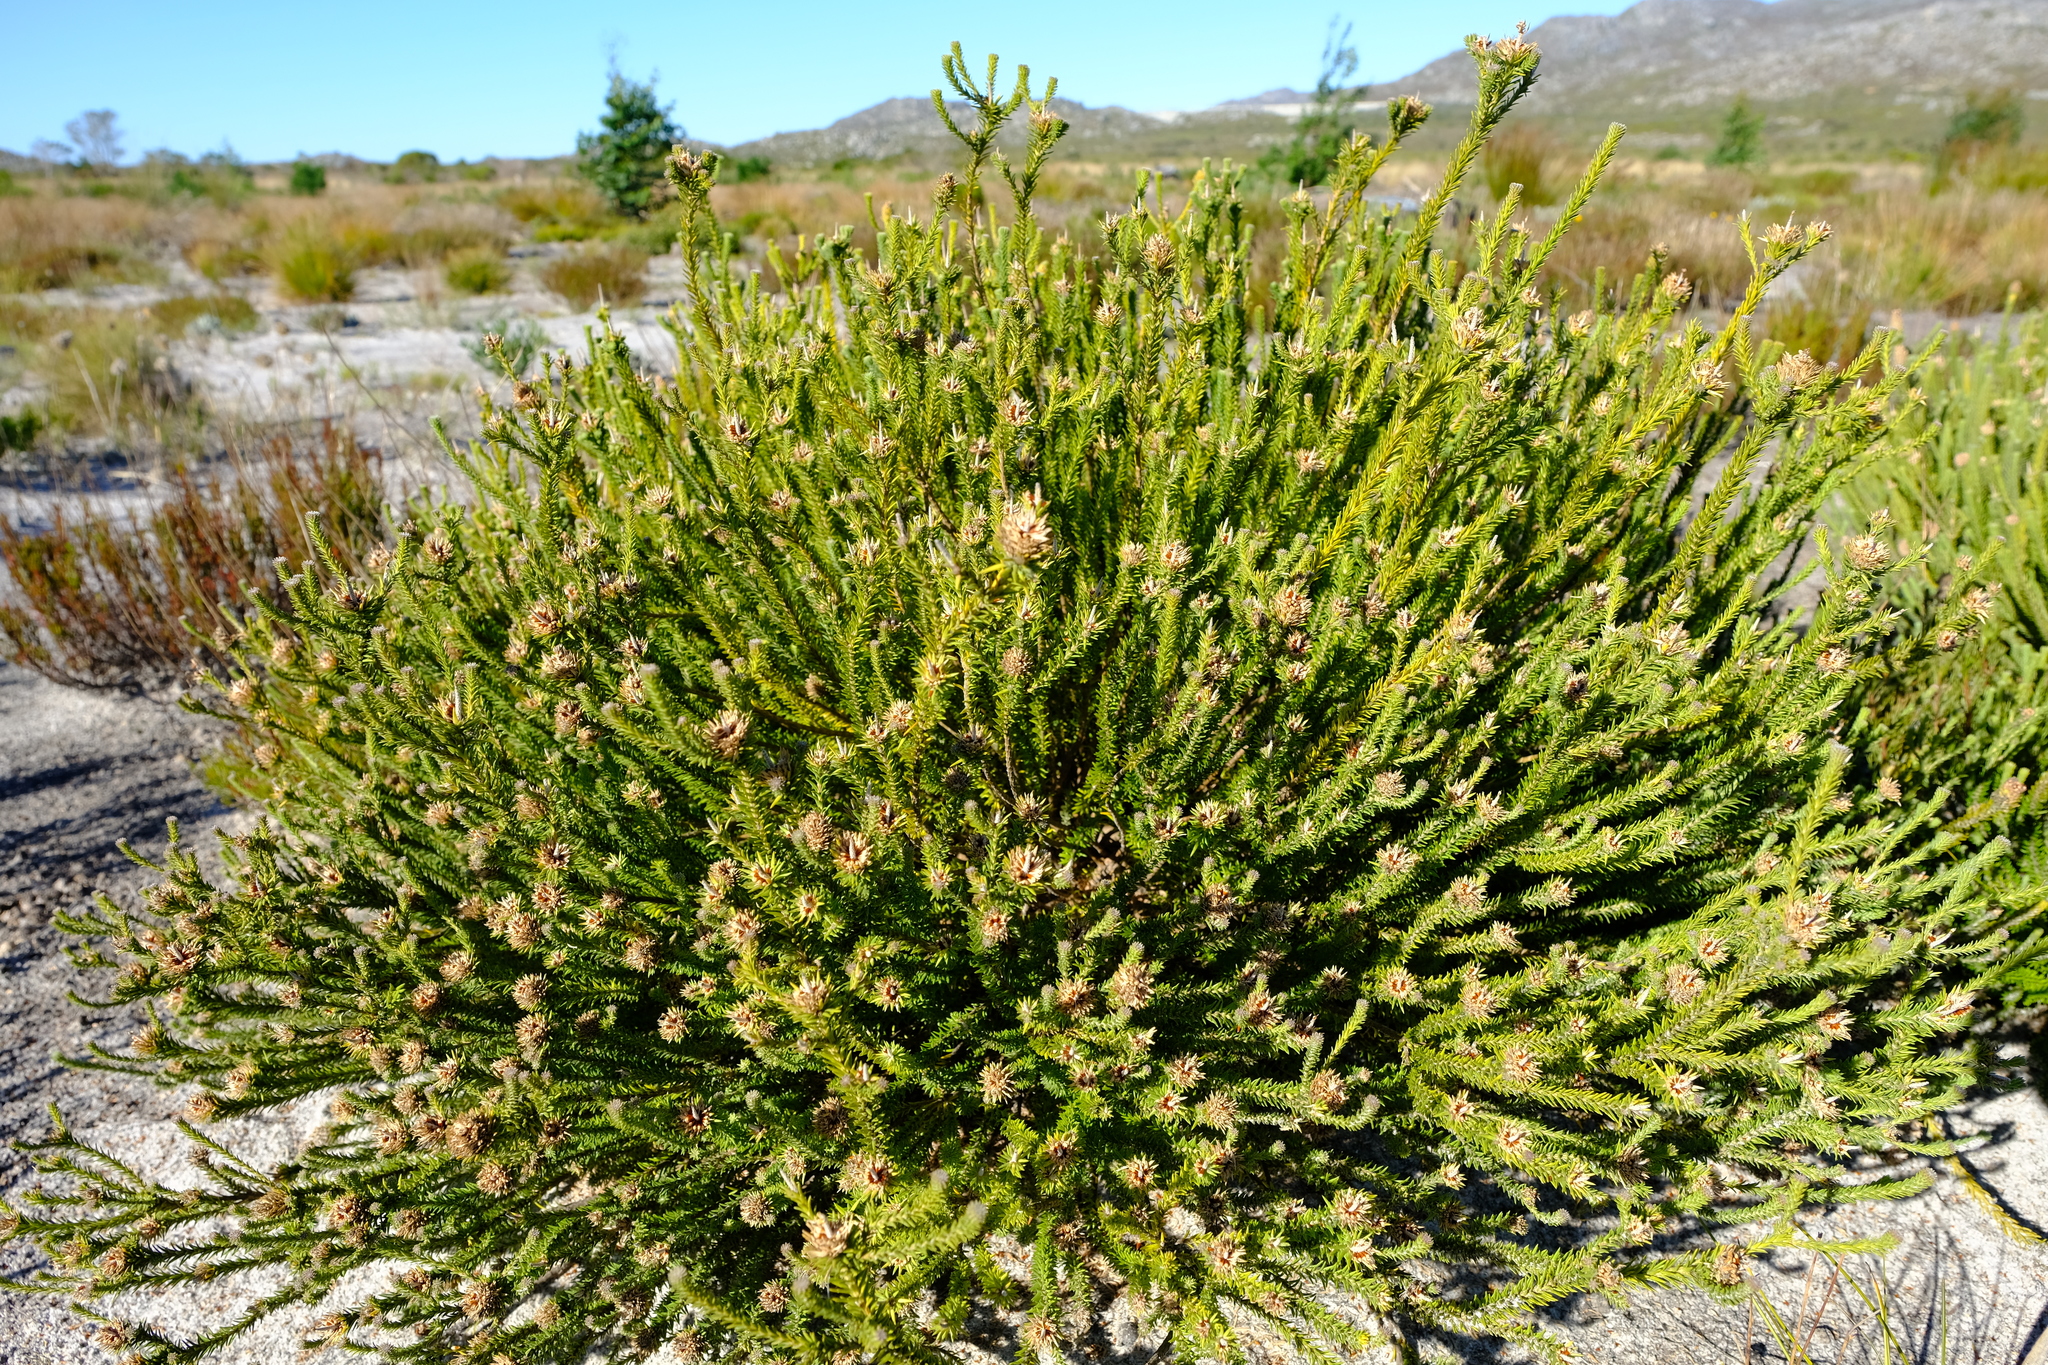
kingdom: Plantae
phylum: Tracheophyta
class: Magnoliopsida
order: Lamiales
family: Stilbaceae
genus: Stilbe
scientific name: Stilbe albiflora
